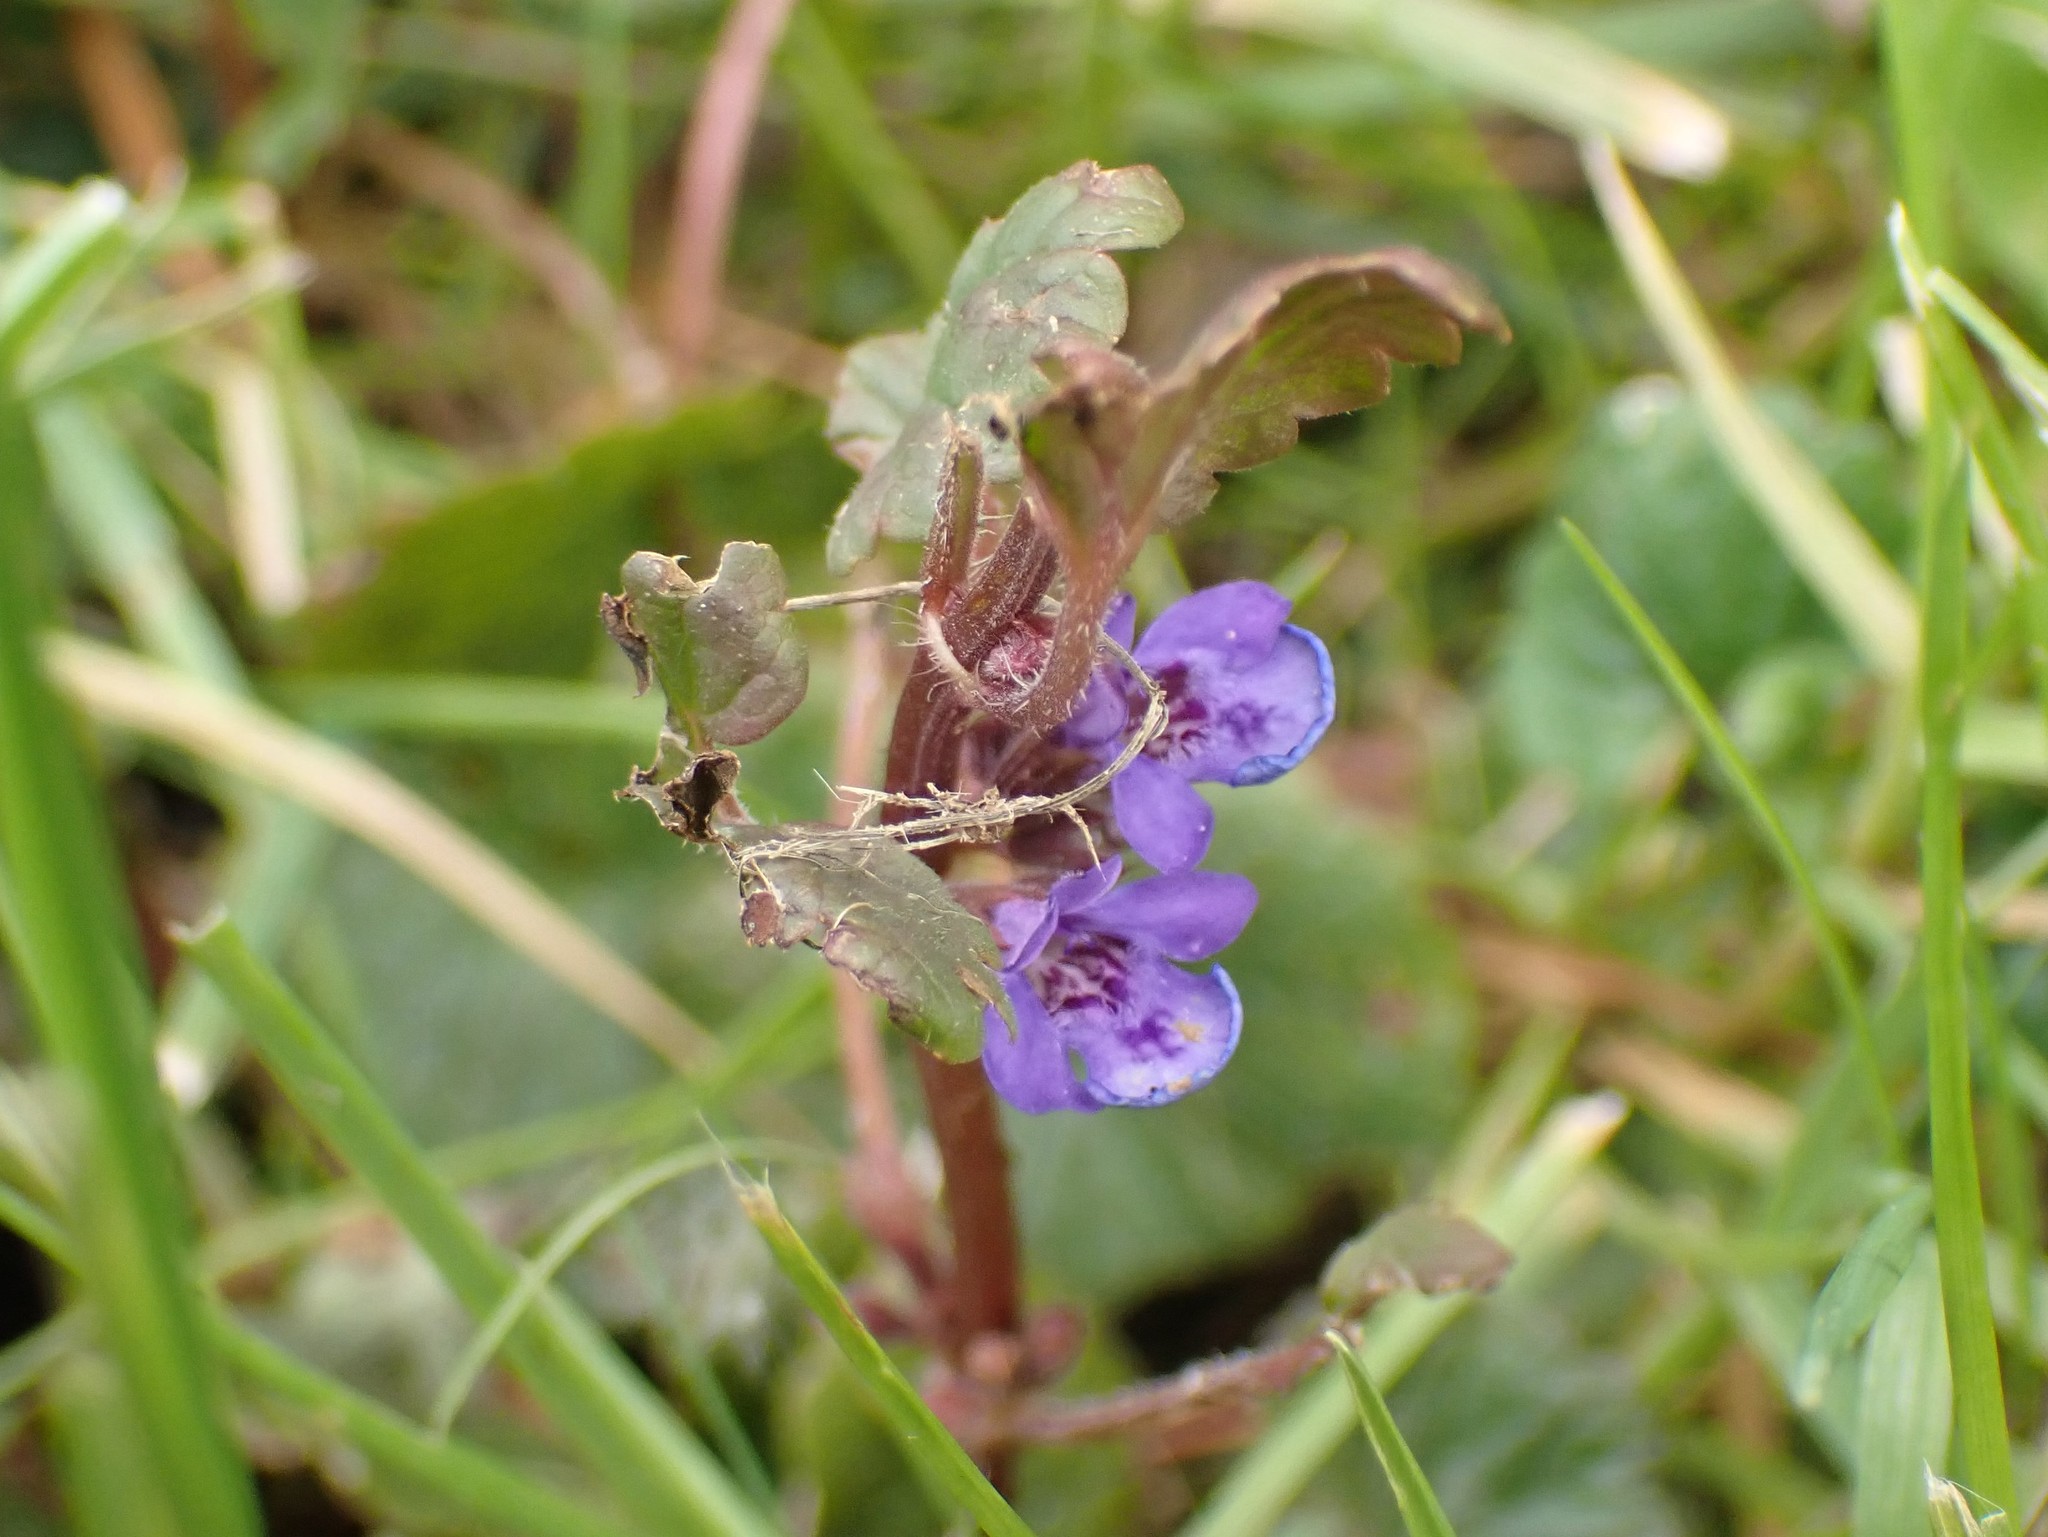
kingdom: Plantae
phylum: Tracheophyta
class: Magnoliopsida
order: Lamiales
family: Lamiaceae
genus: Glechoma
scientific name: Glechoma hederacea
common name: Ground ivy
